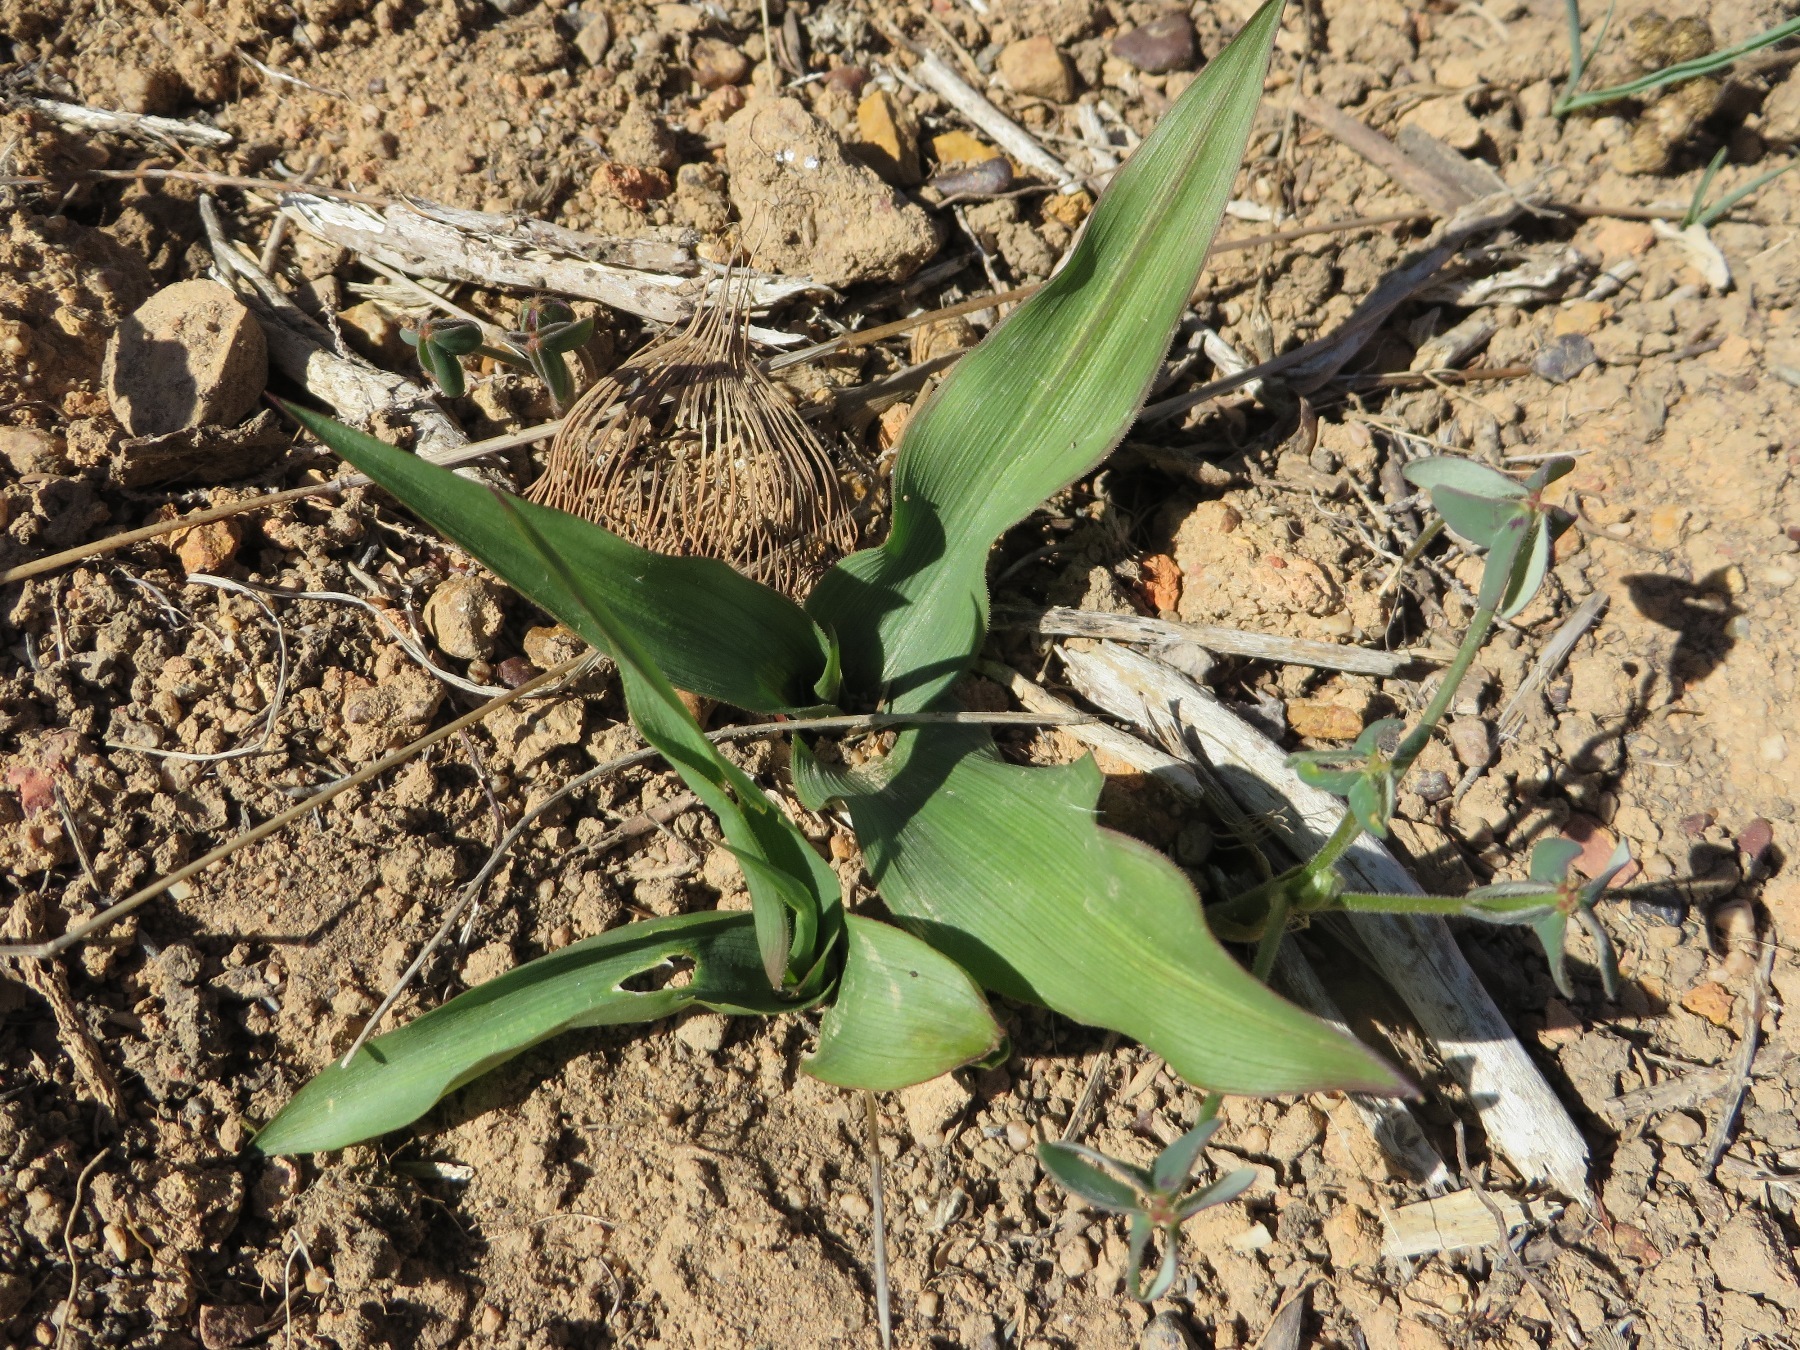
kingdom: Plantae
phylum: Tracheophyta
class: Liliopsida
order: Asparagales
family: Tecophilaeaceae
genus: Cyanella
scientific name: Cyanella hyacinthoides
